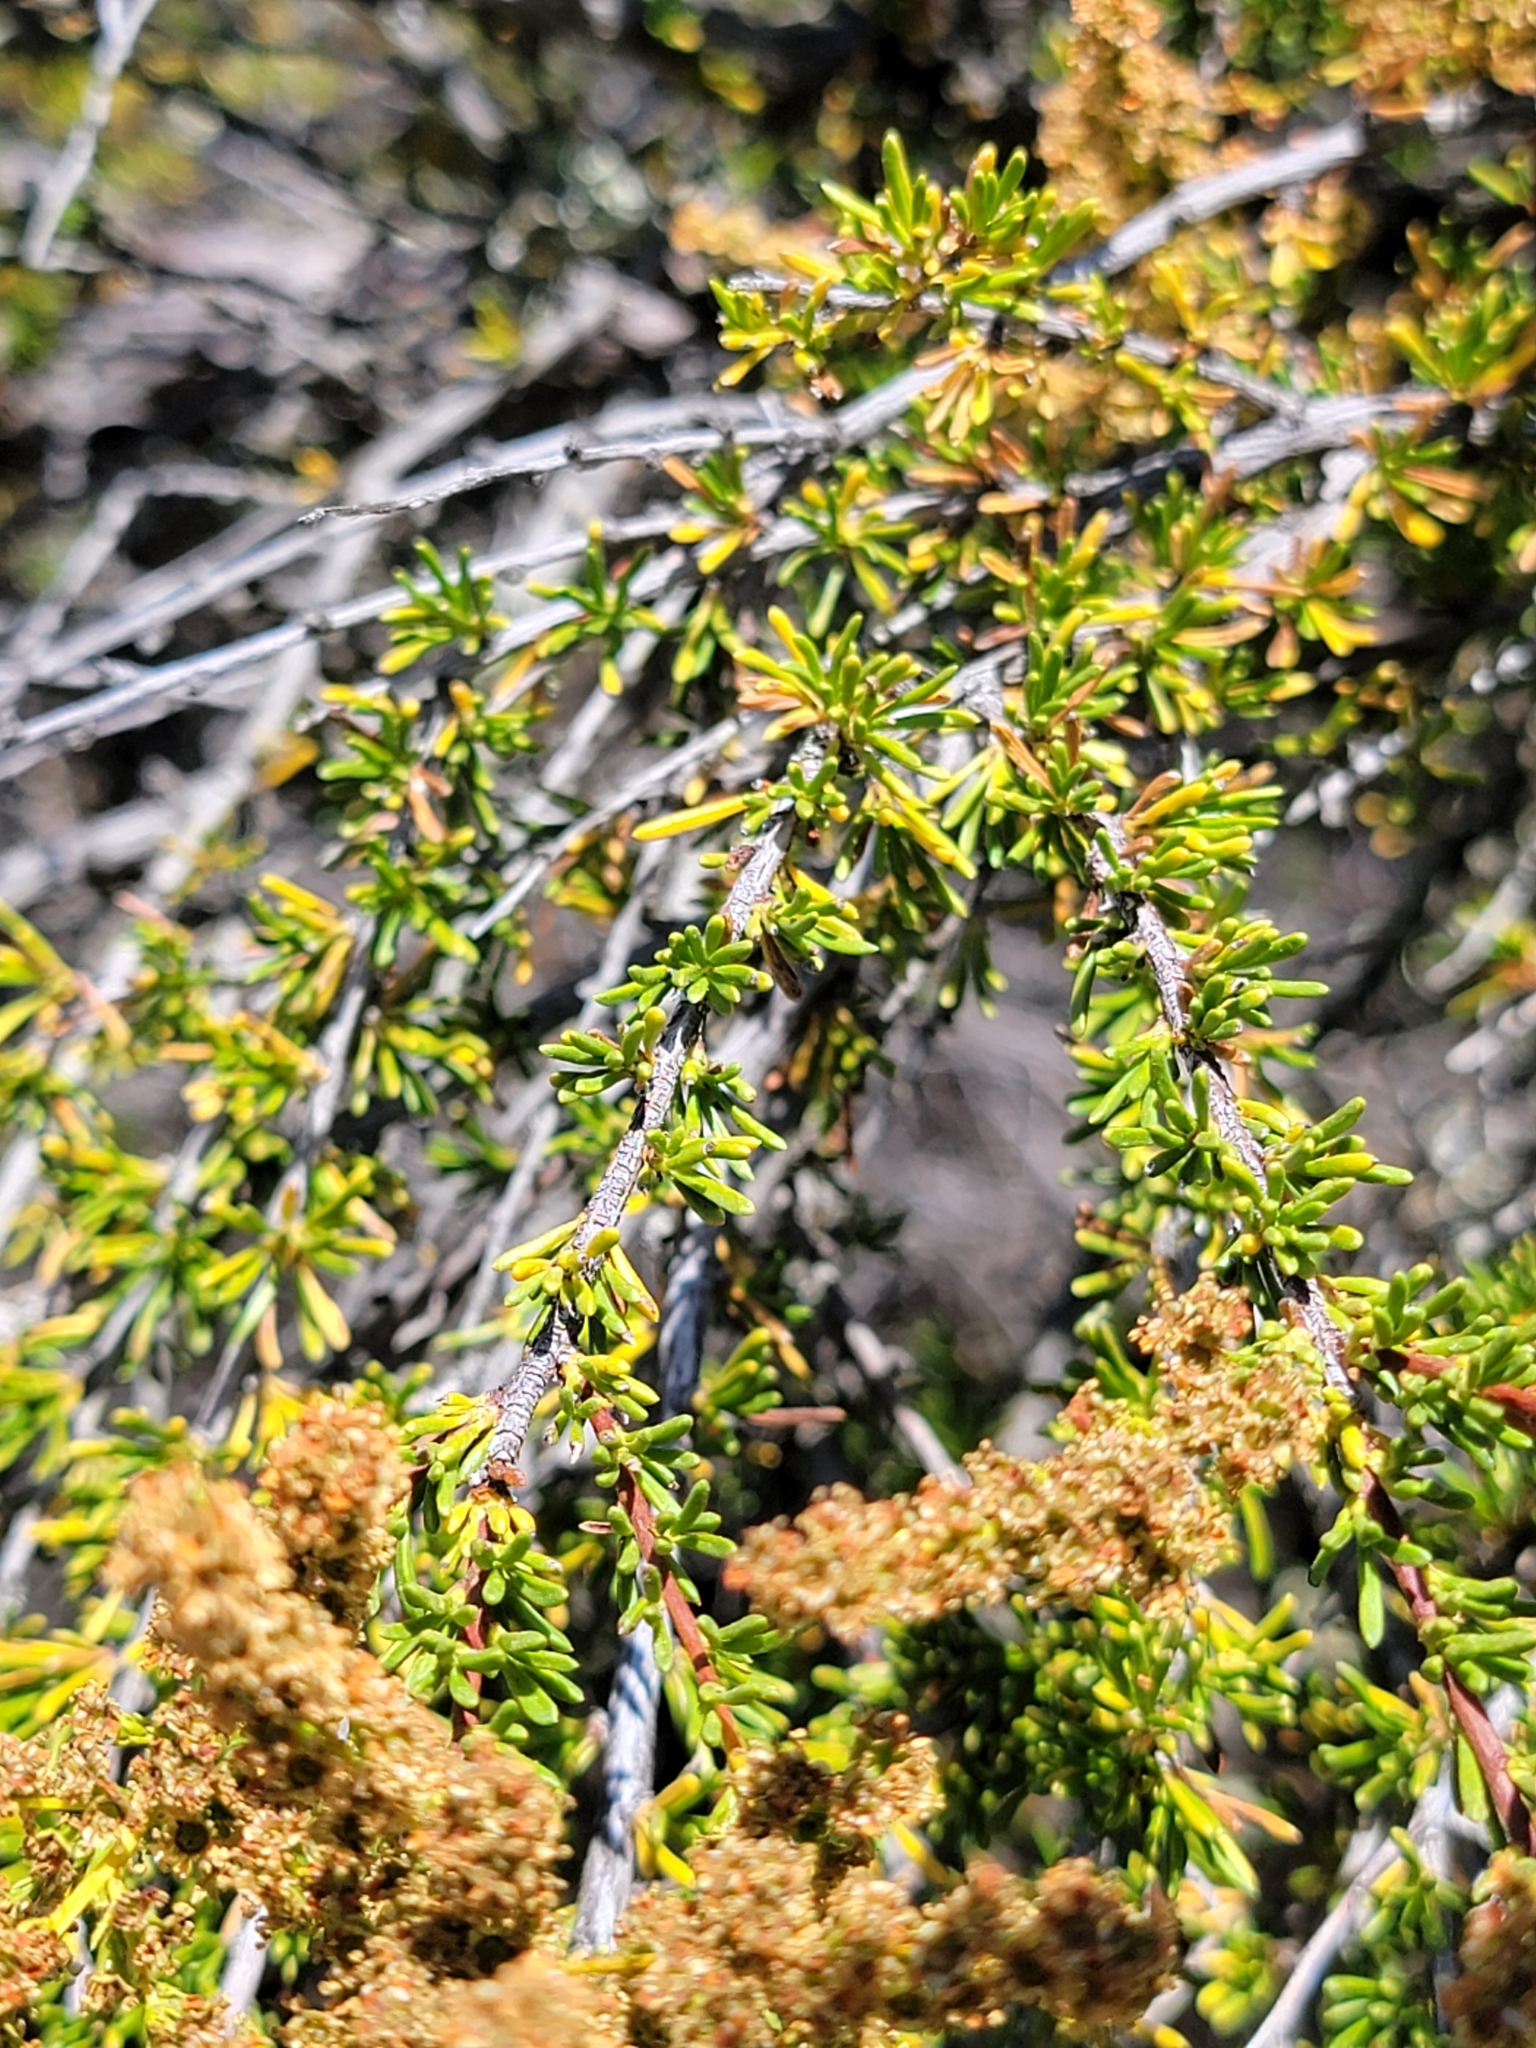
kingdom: Plantae
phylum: Tracheophyta
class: Magnoliopsida
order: Rosales
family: Rosaceae
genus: Adenostoma
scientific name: Adenostoma fasciculatum
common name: Chamise
